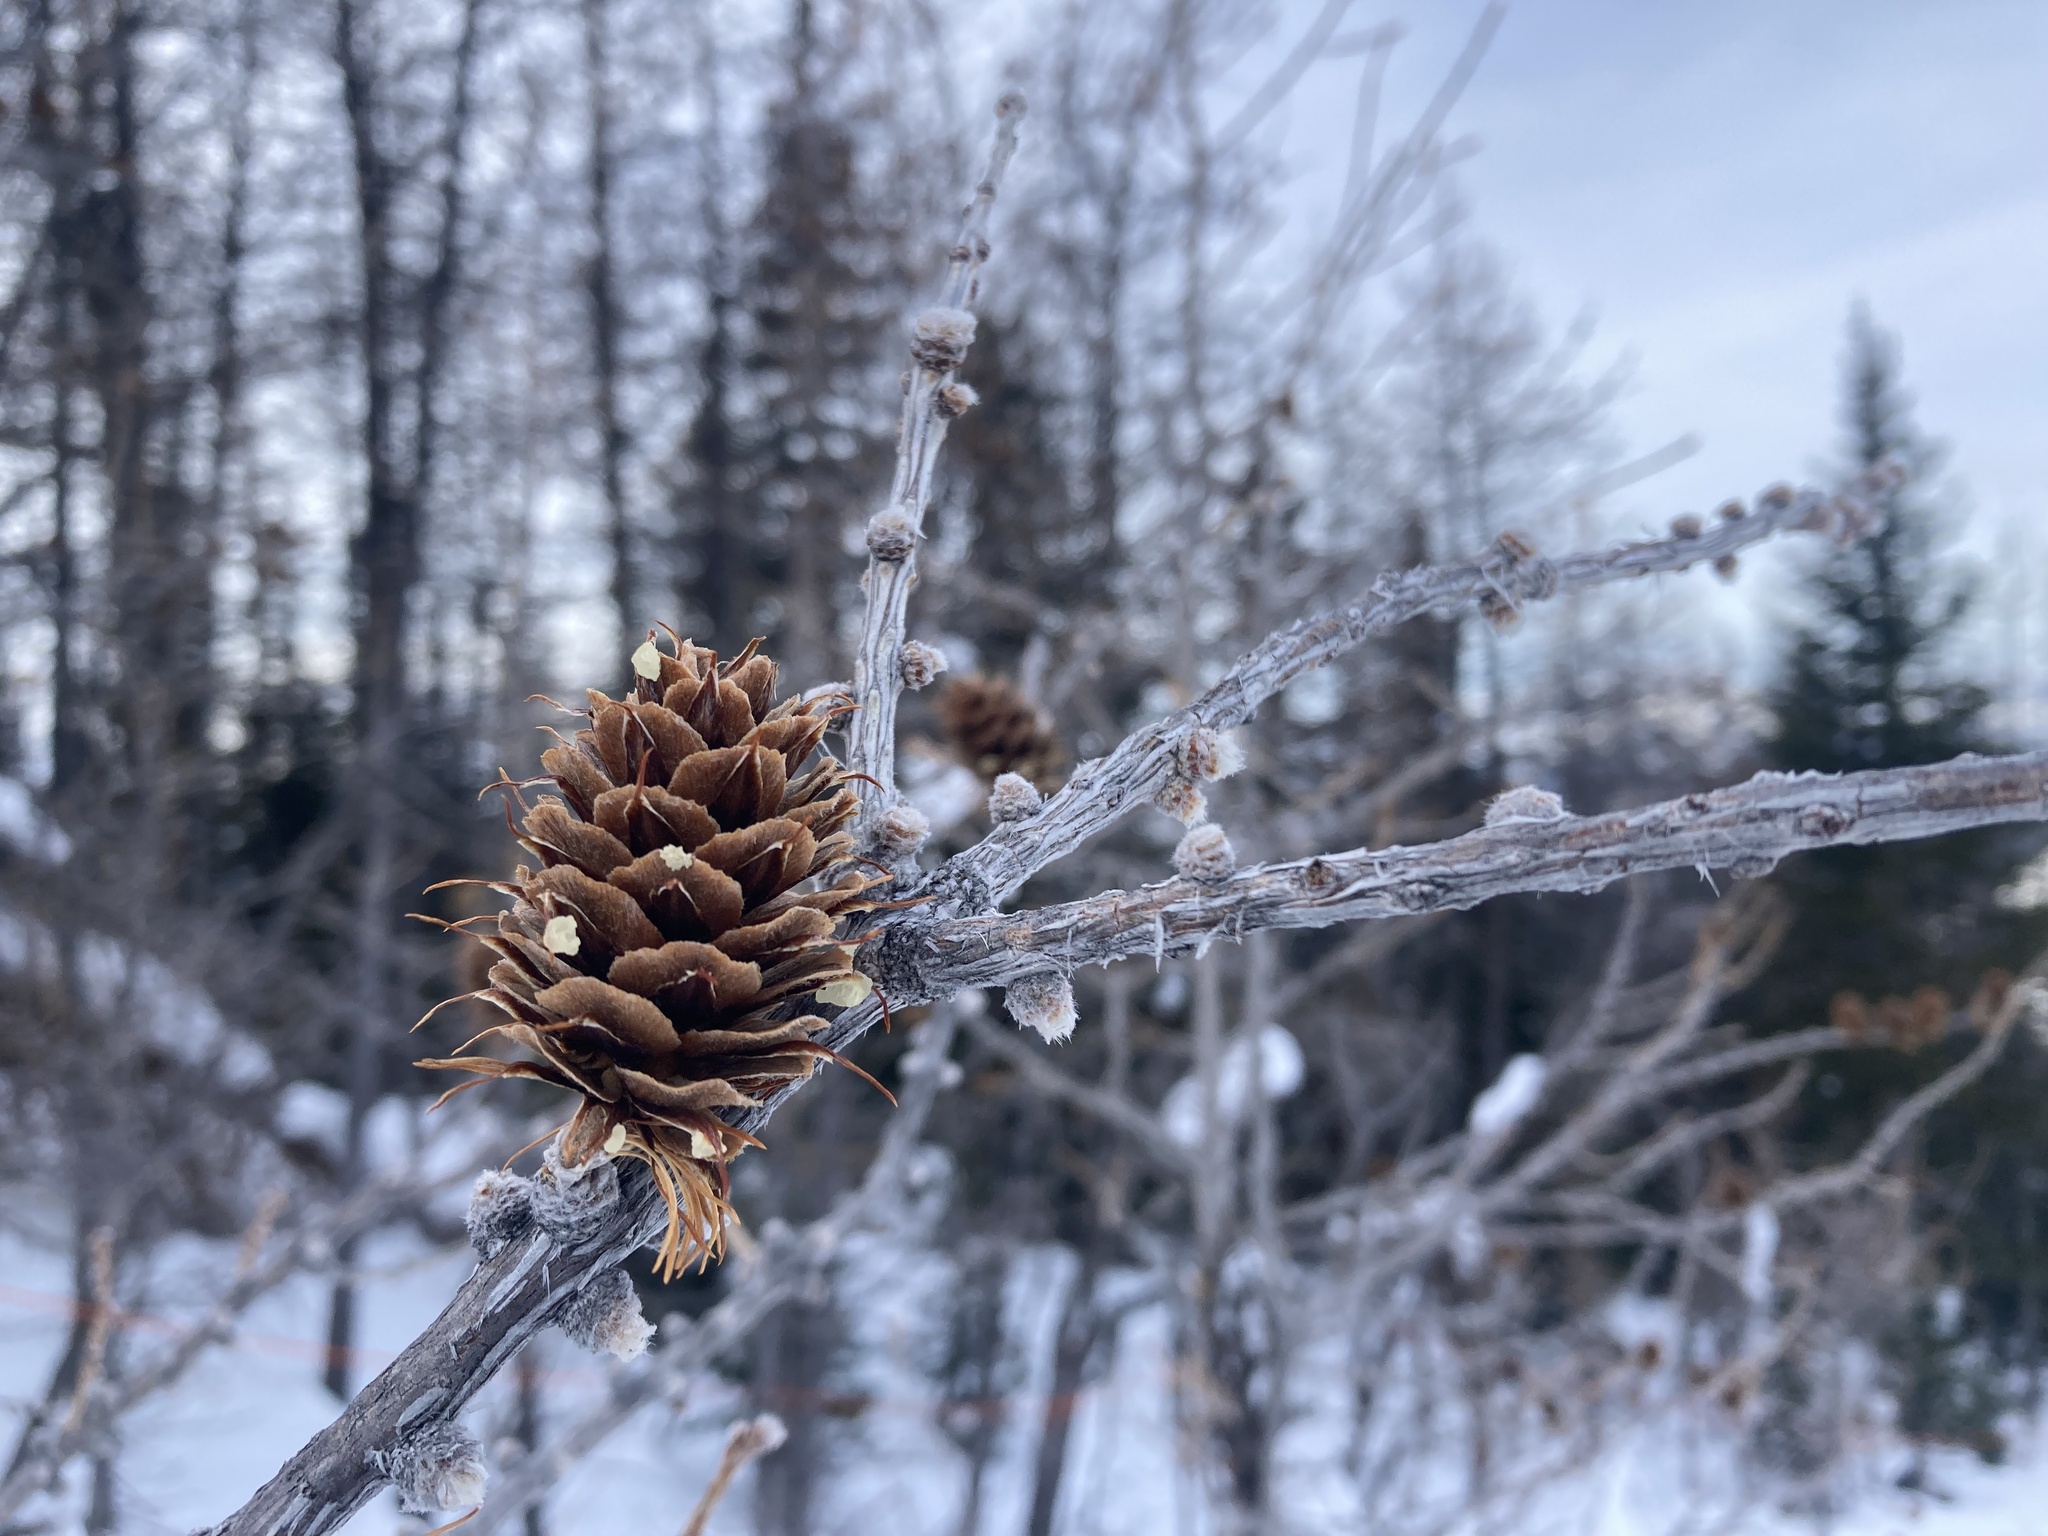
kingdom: Plantae
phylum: Tracheophyta
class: Pinopsida
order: Pinales
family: Pinaceae
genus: Larix
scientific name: Larix lyallii
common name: Alpine larch
